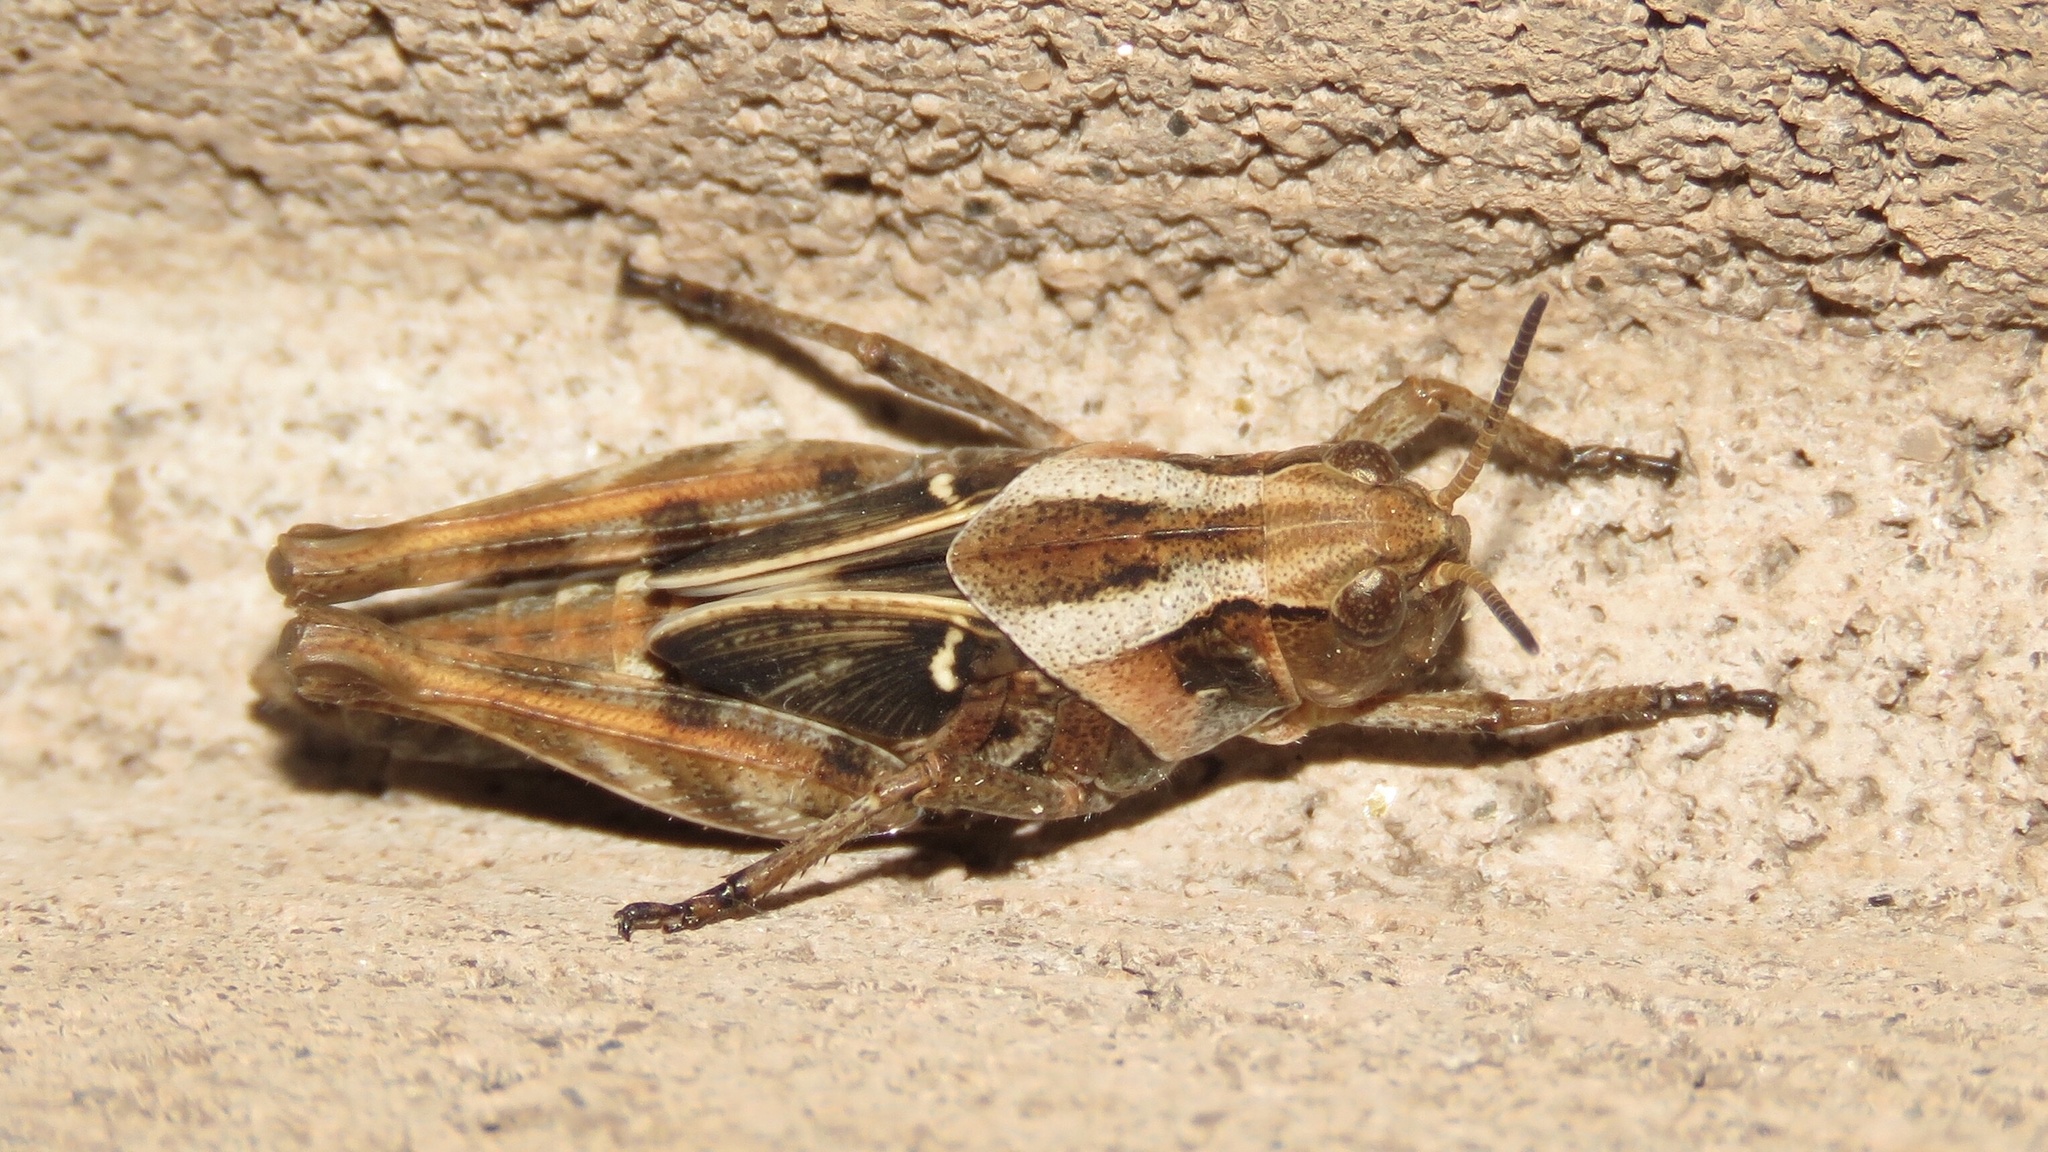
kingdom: Animalia
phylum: Arthropoda
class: Insecta
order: Orthoptera
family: Acrididae
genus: Camnula
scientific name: Camnula pellucida
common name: Clear-winged grasshopper
